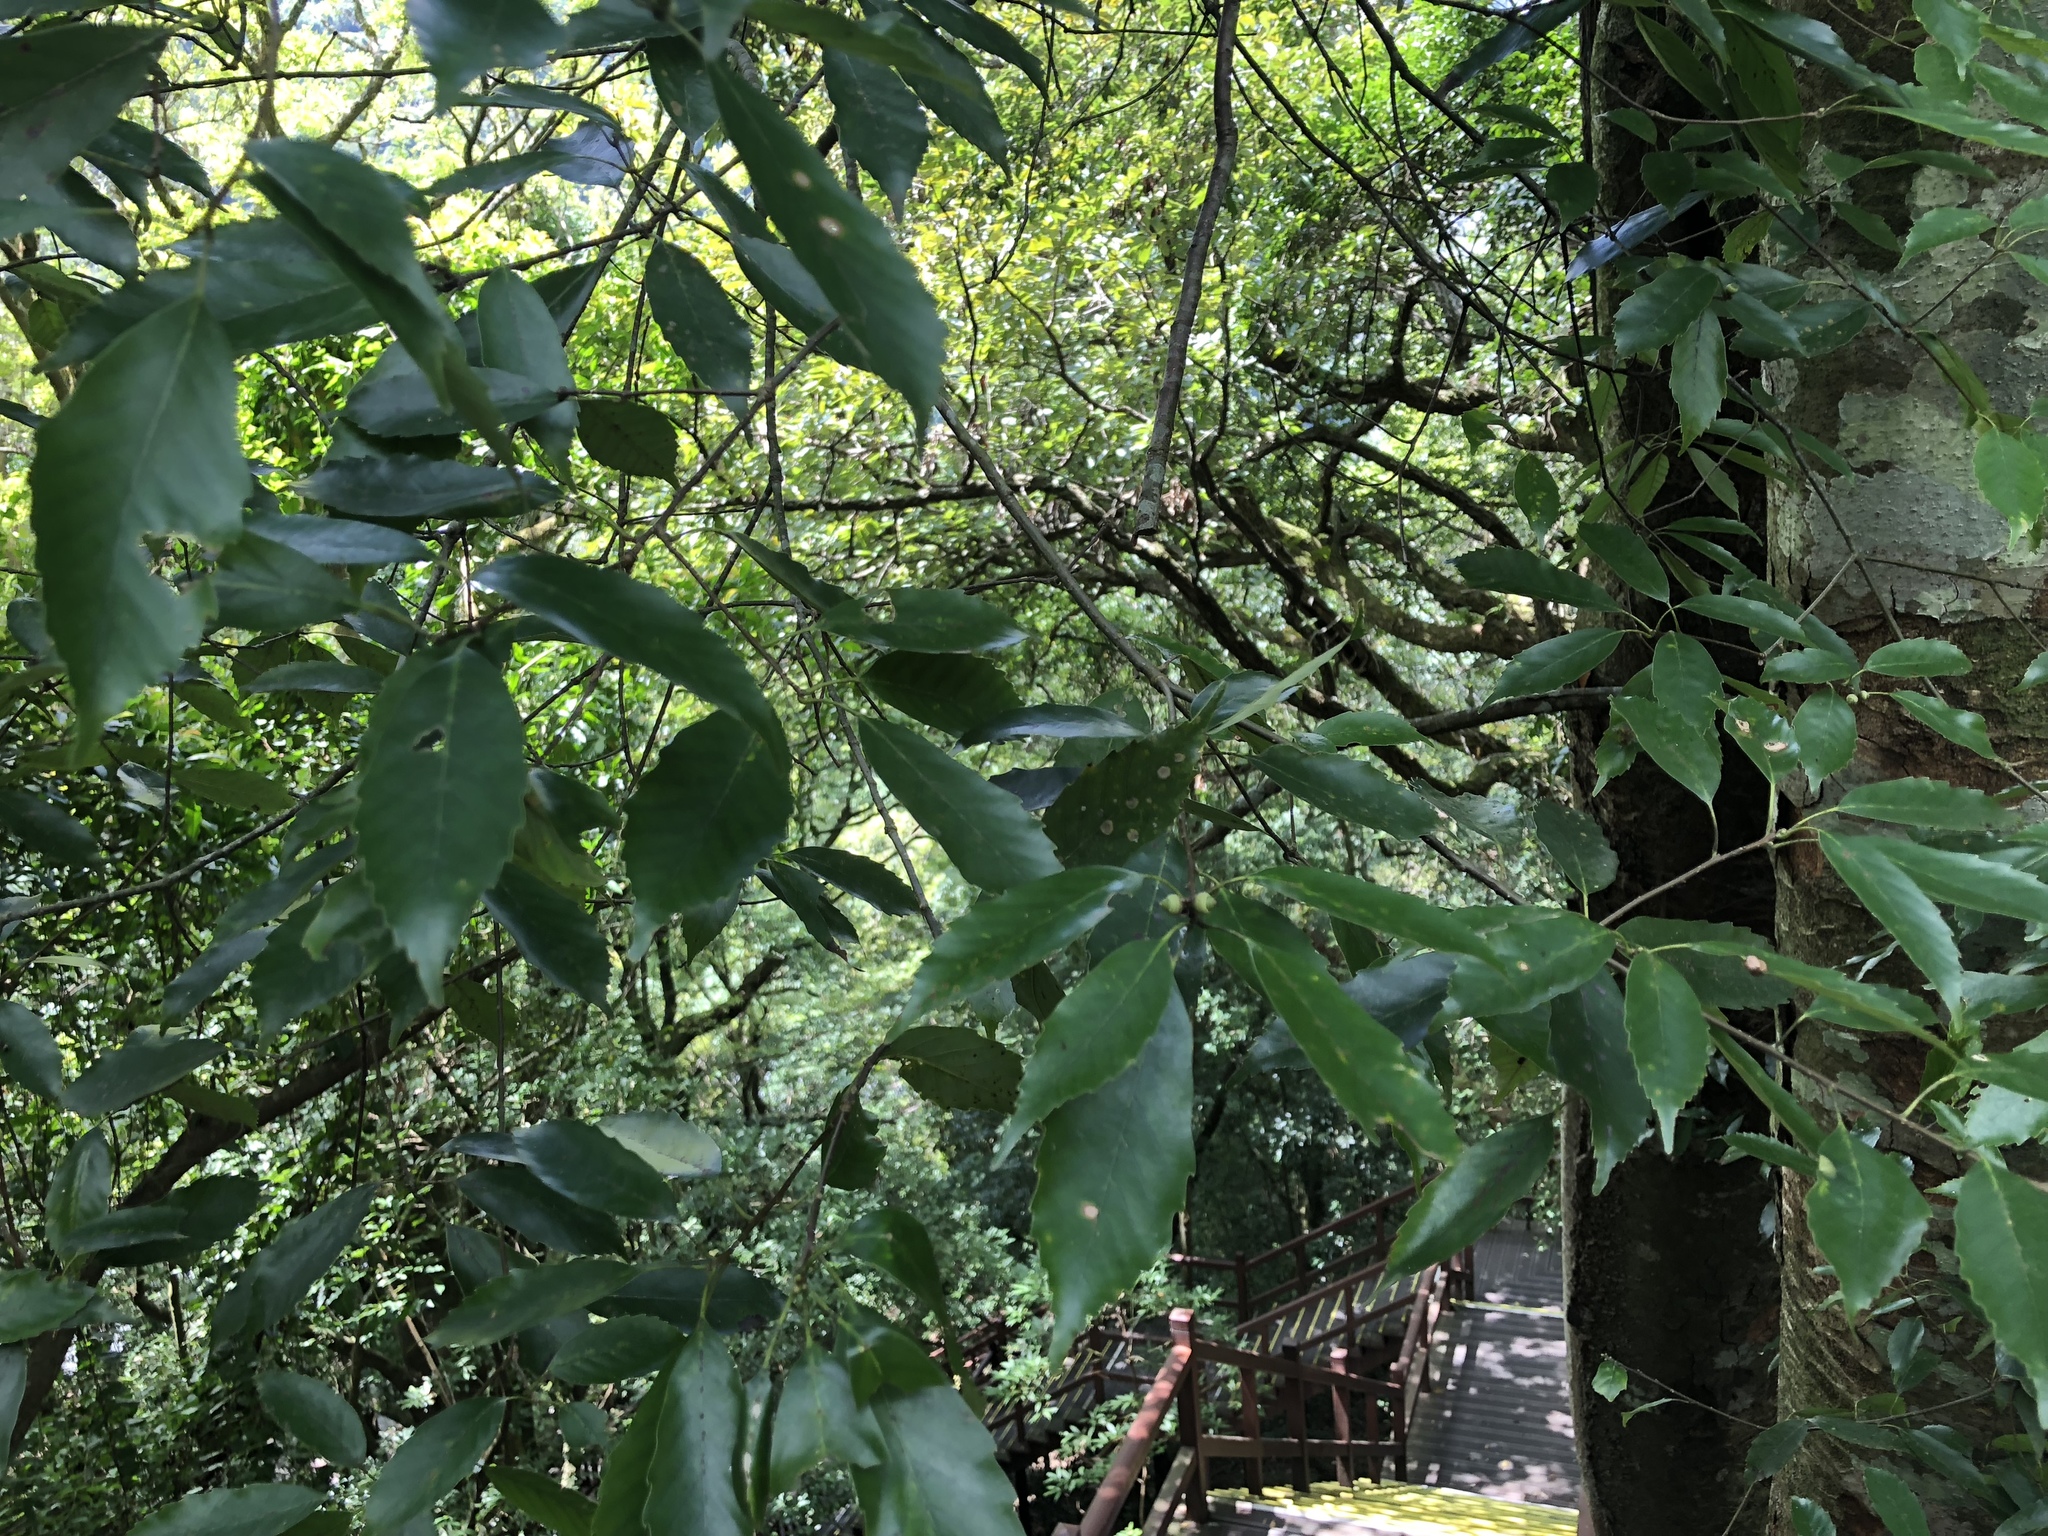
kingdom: Plantae
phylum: Tracheophyta
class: Magnoliopsida
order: Fagales
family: Fagaceae
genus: Quercus
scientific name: Quercus glauca
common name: Ring-cup oak
